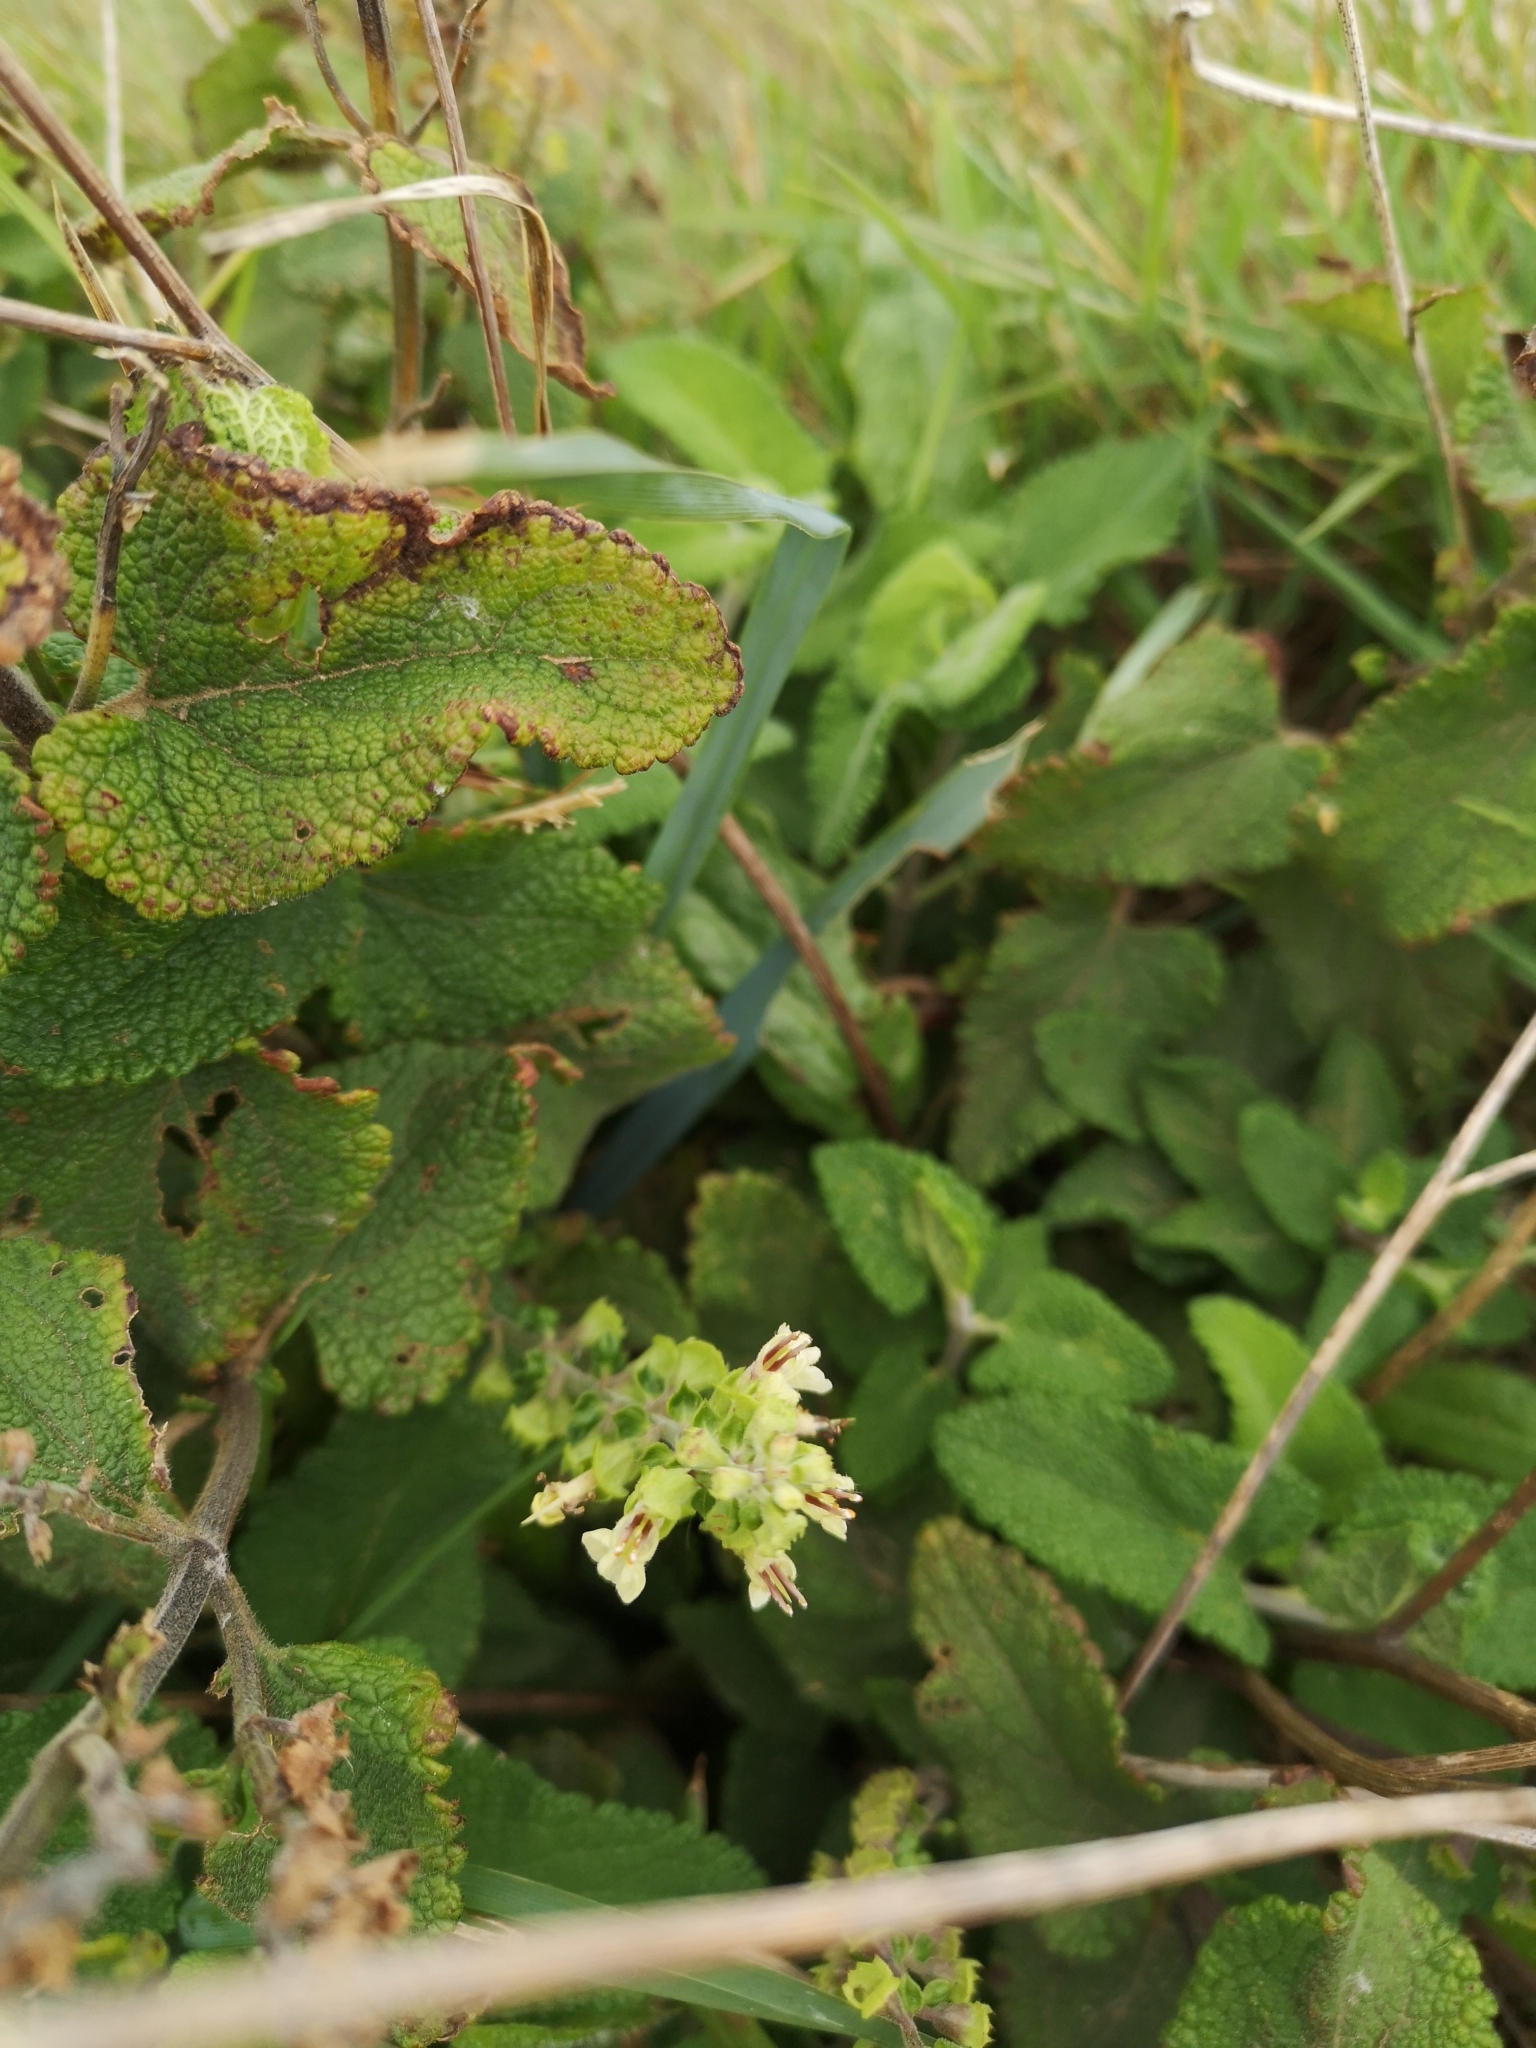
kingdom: Plantae
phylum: Tracheophyta
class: Magnoliopsida
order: Lamiales
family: Lamiaceae
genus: Teucrium
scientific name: Teucrium scorodonia
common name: Woodland germander
